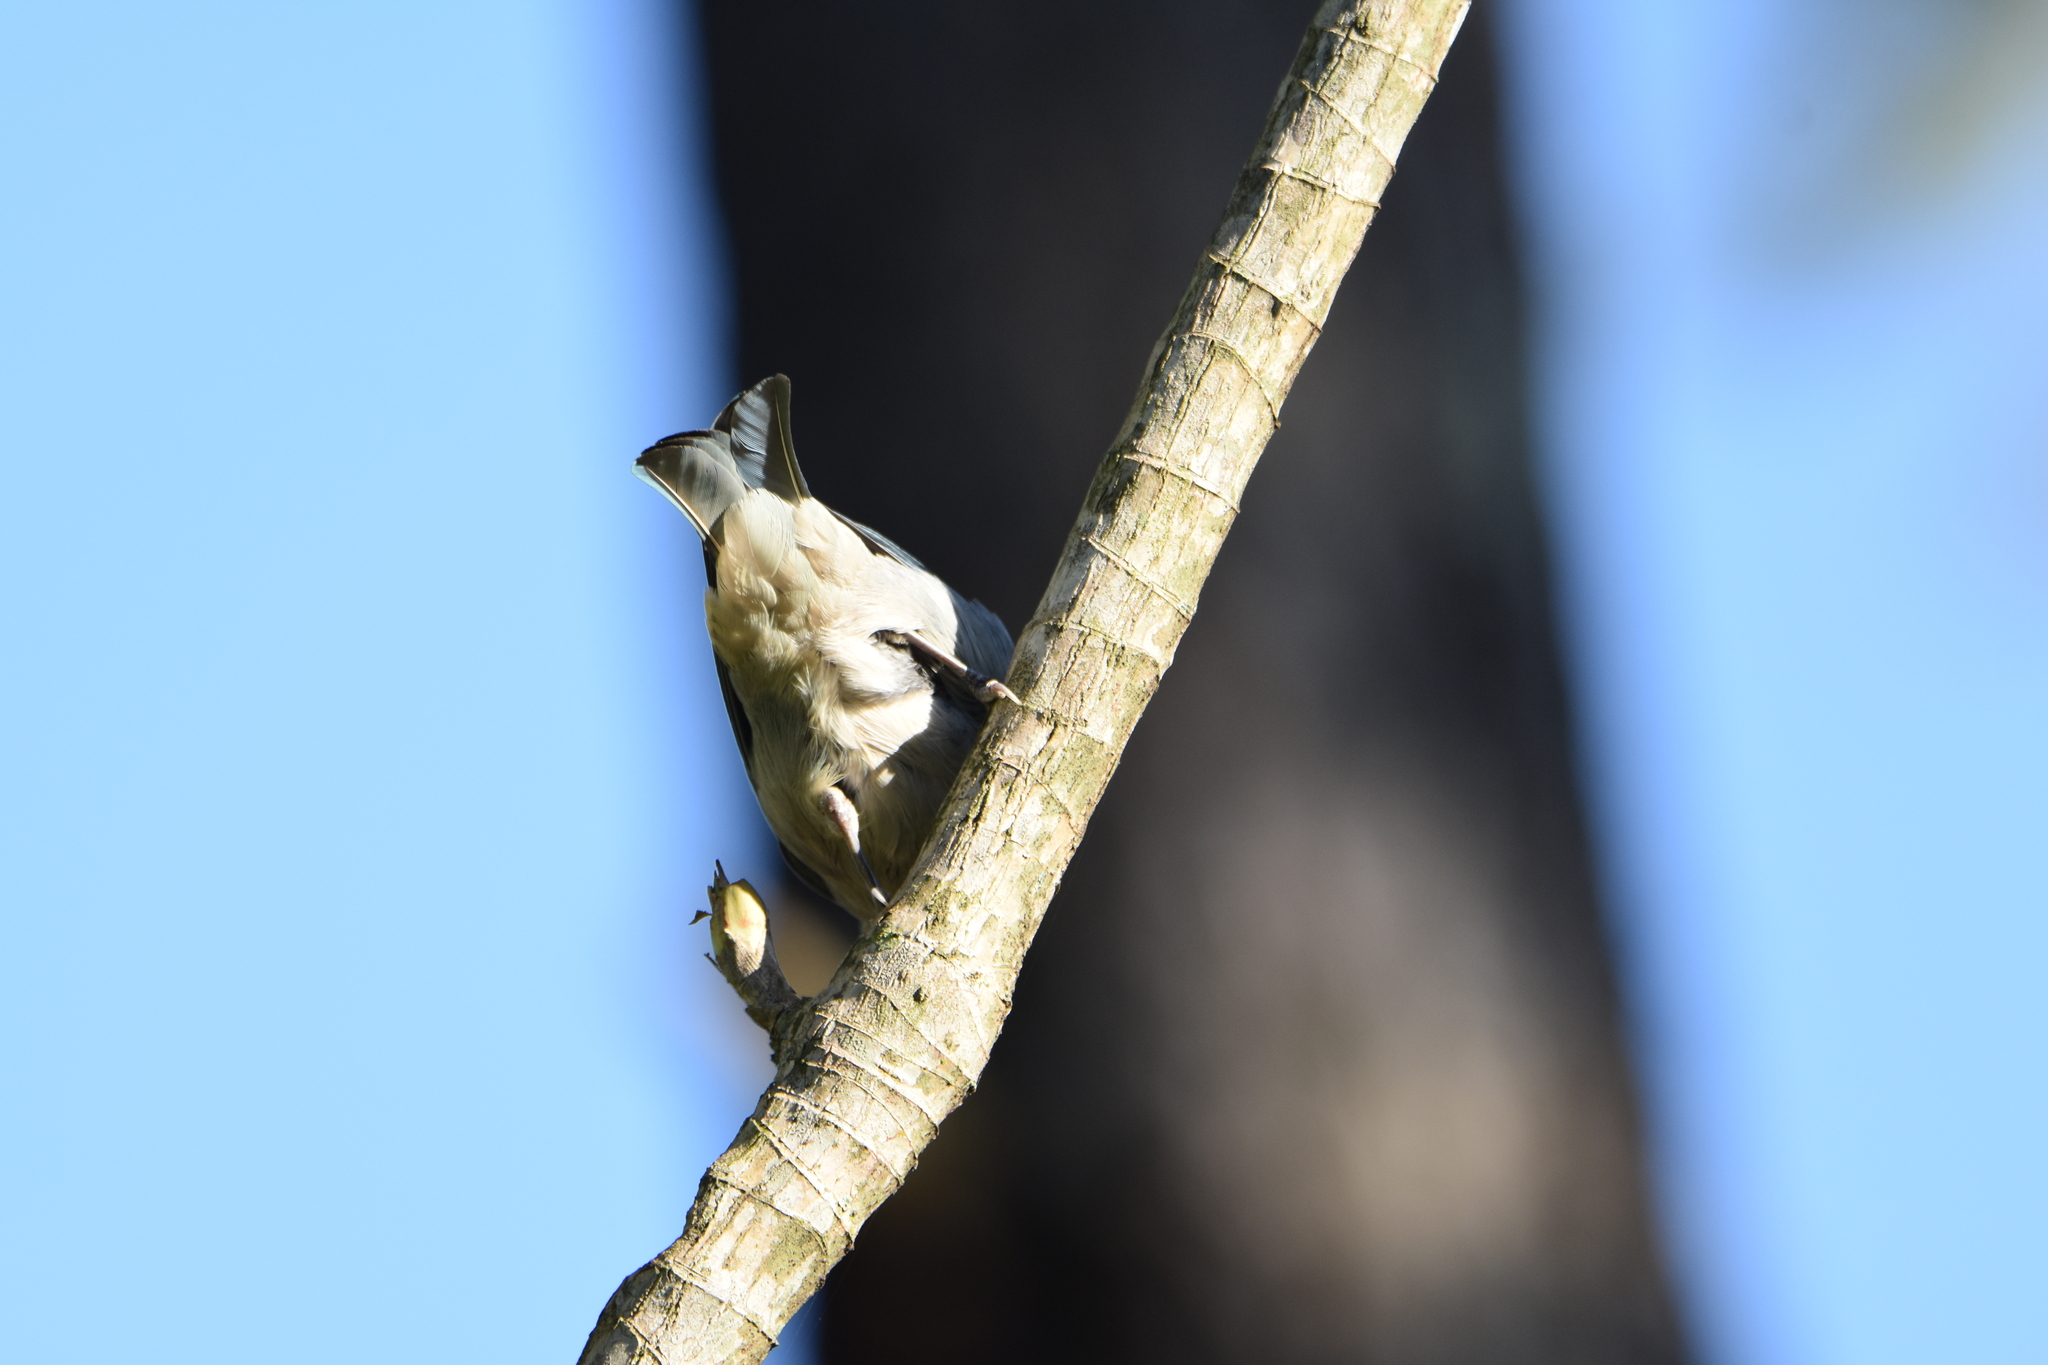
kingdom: Animalia
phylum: Chordata
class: Aves
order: Passeriformes
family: Thraupidae
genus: Thraupis
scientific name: Thraupis sayaca
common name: Sayaca tanager
